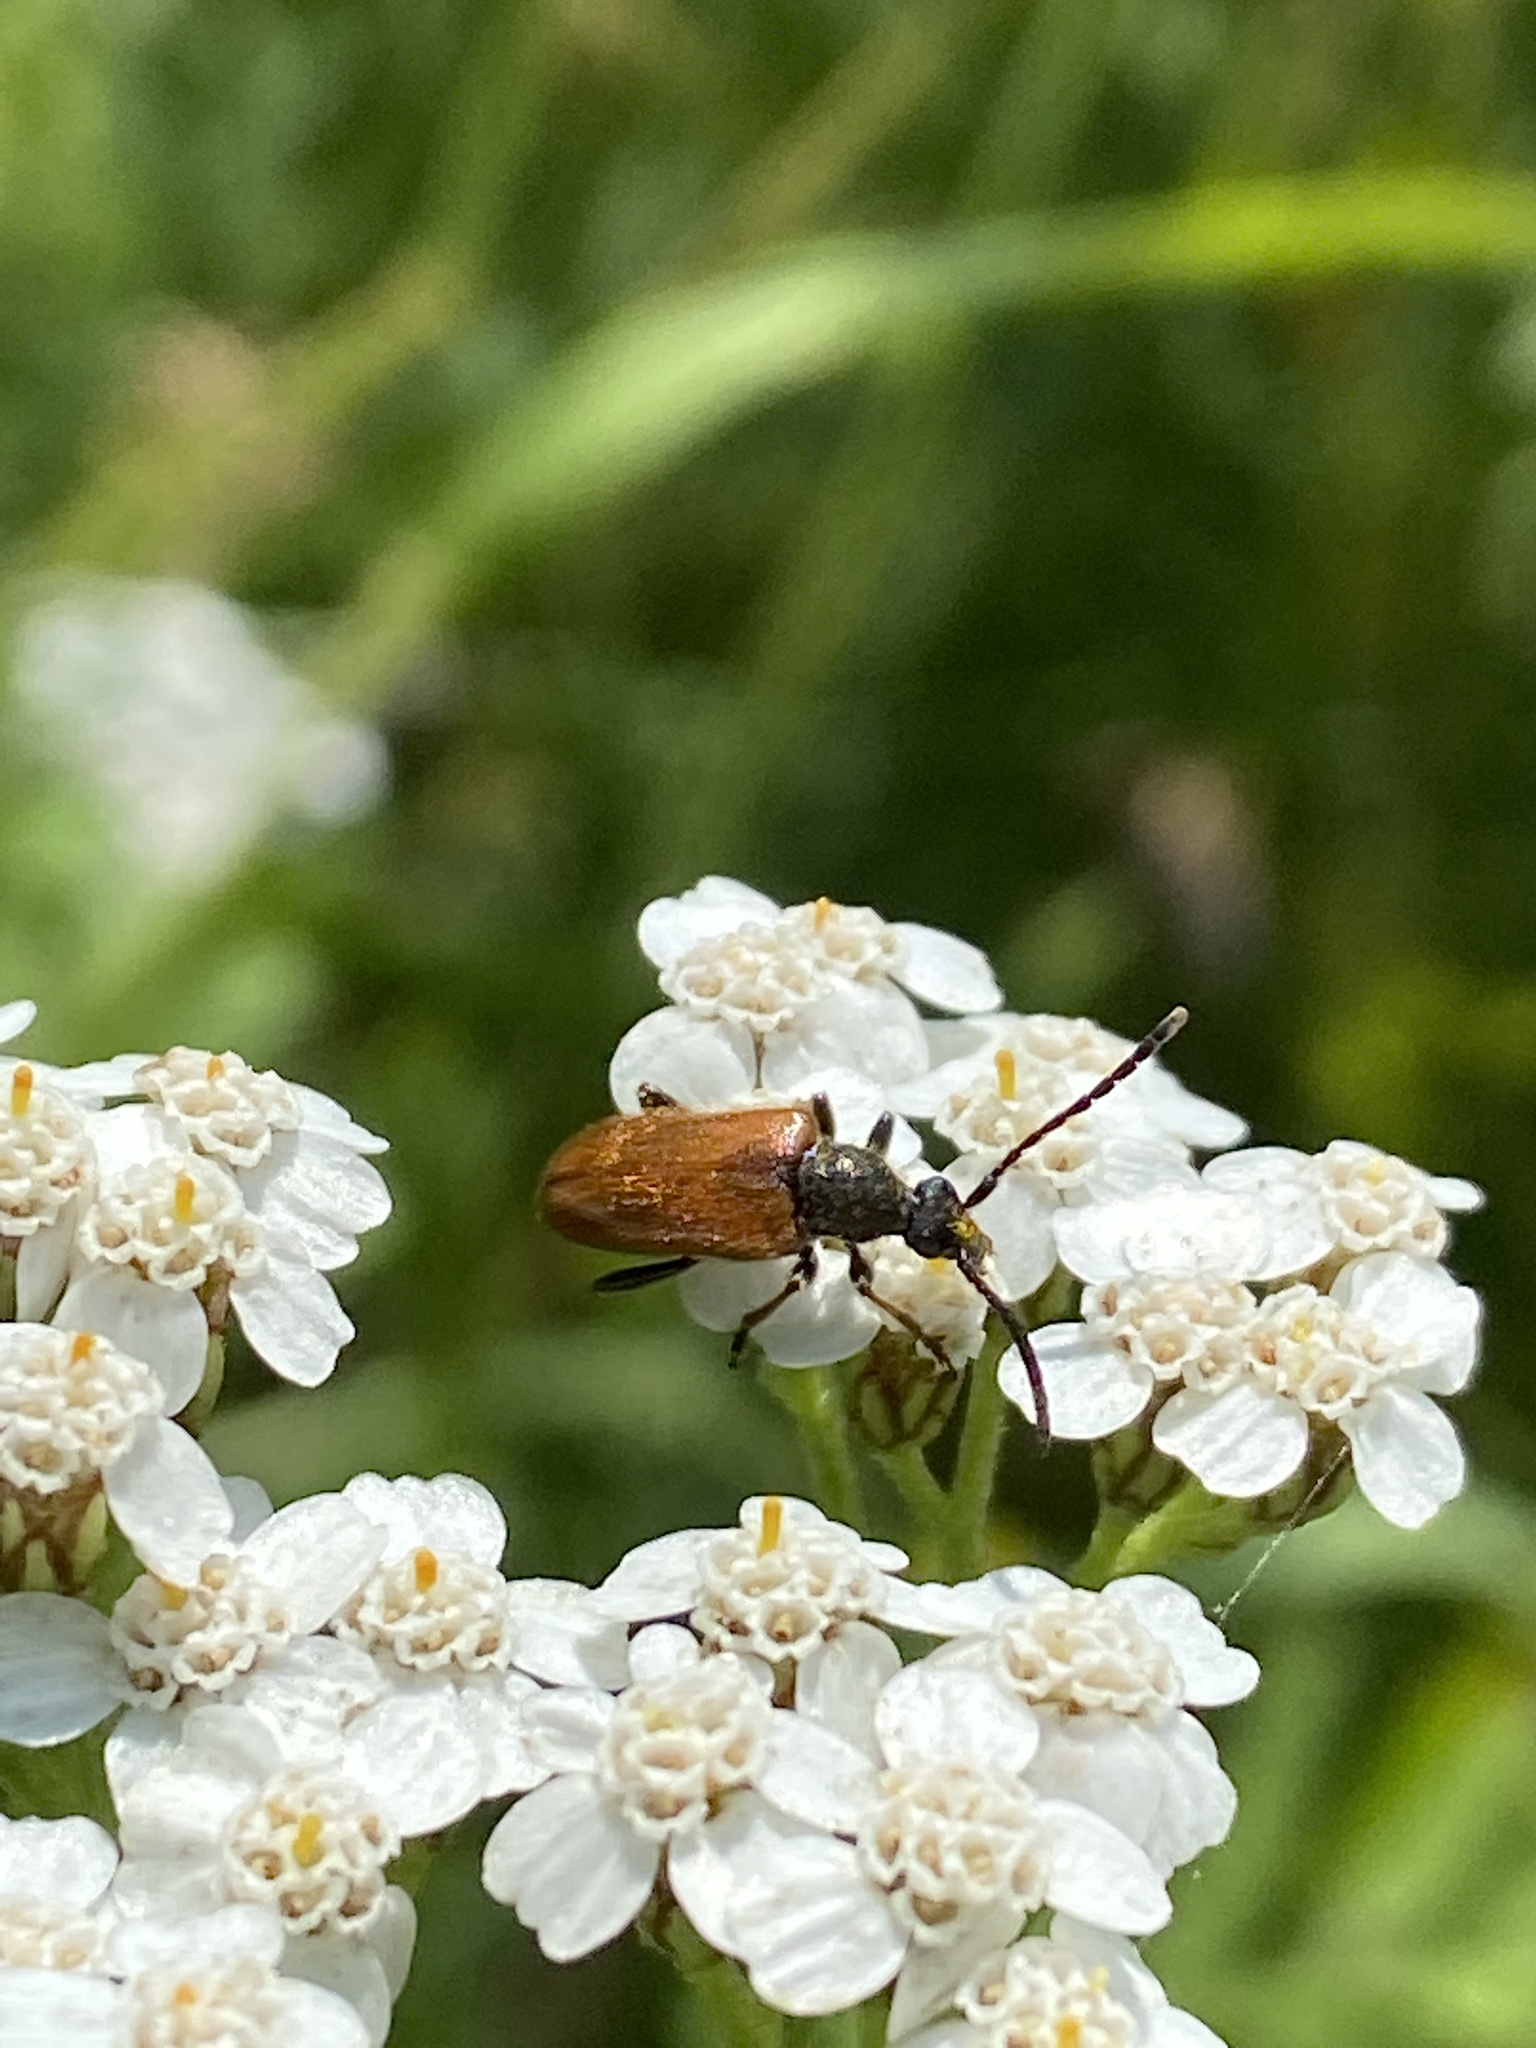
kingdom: Animalia
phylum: Arthropoda
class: Insecta
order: Coleoptera
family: Cerambycidae
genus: Pseudovadonia
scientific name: Pseudovadonia livida
